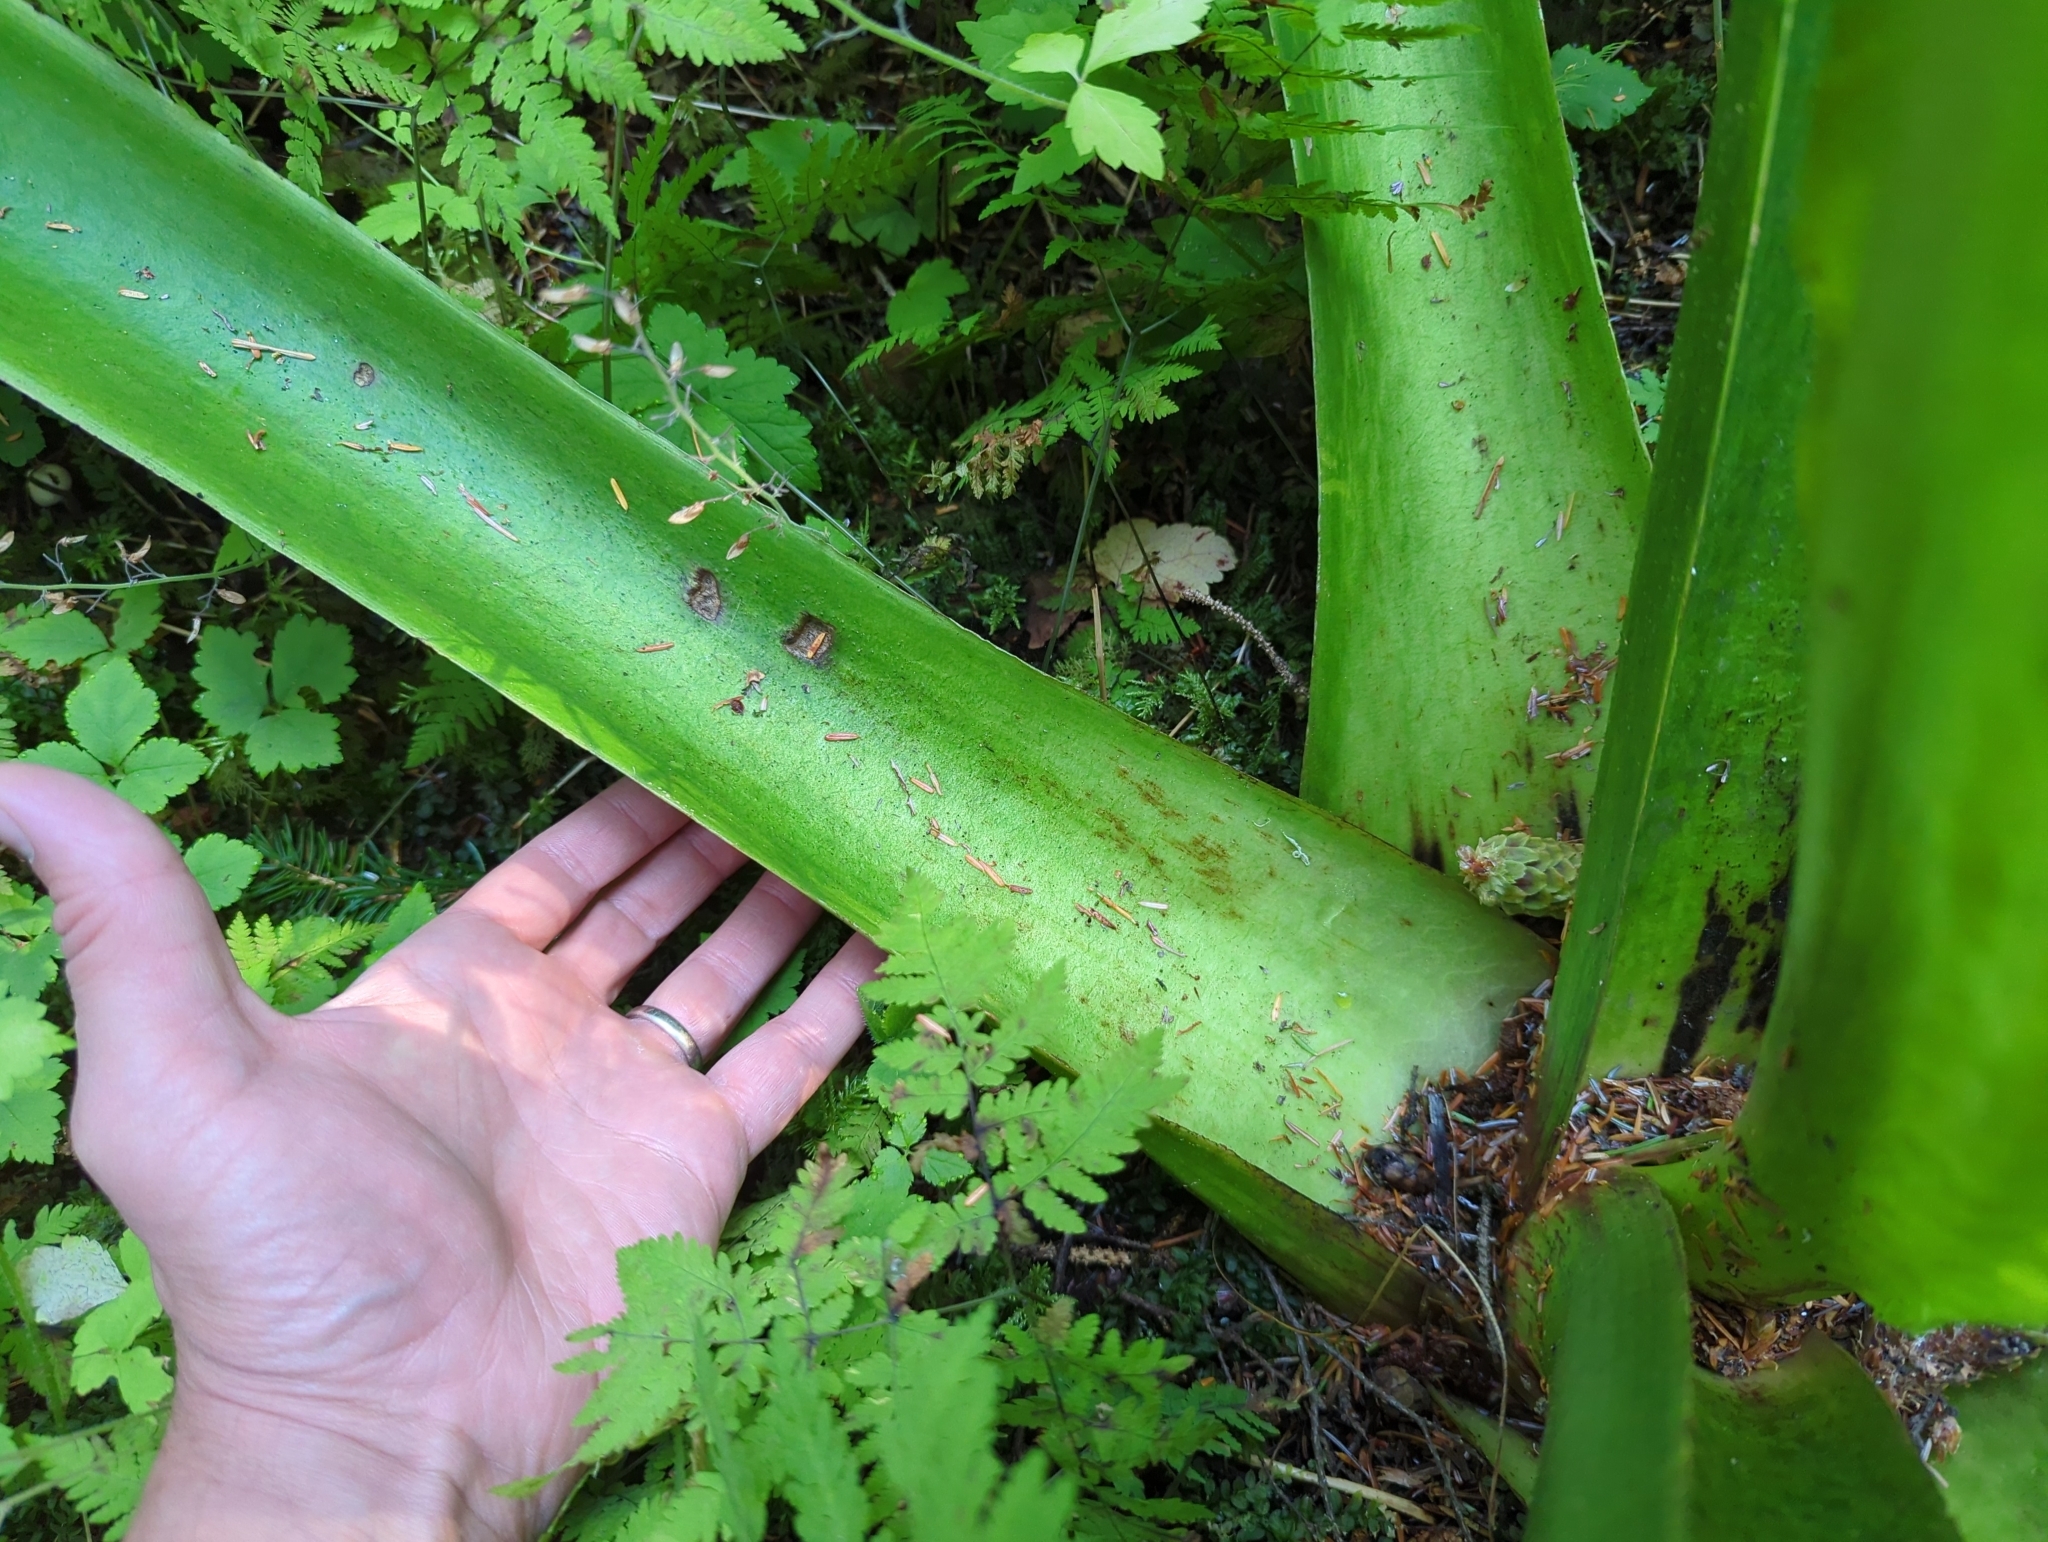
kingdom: Plantae
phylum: Tracheophyta
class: Liliopsida
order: Alismatales
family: Araceae
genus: Lysichiton
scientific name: Lysichiton americanus
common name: American skunk cabbage
